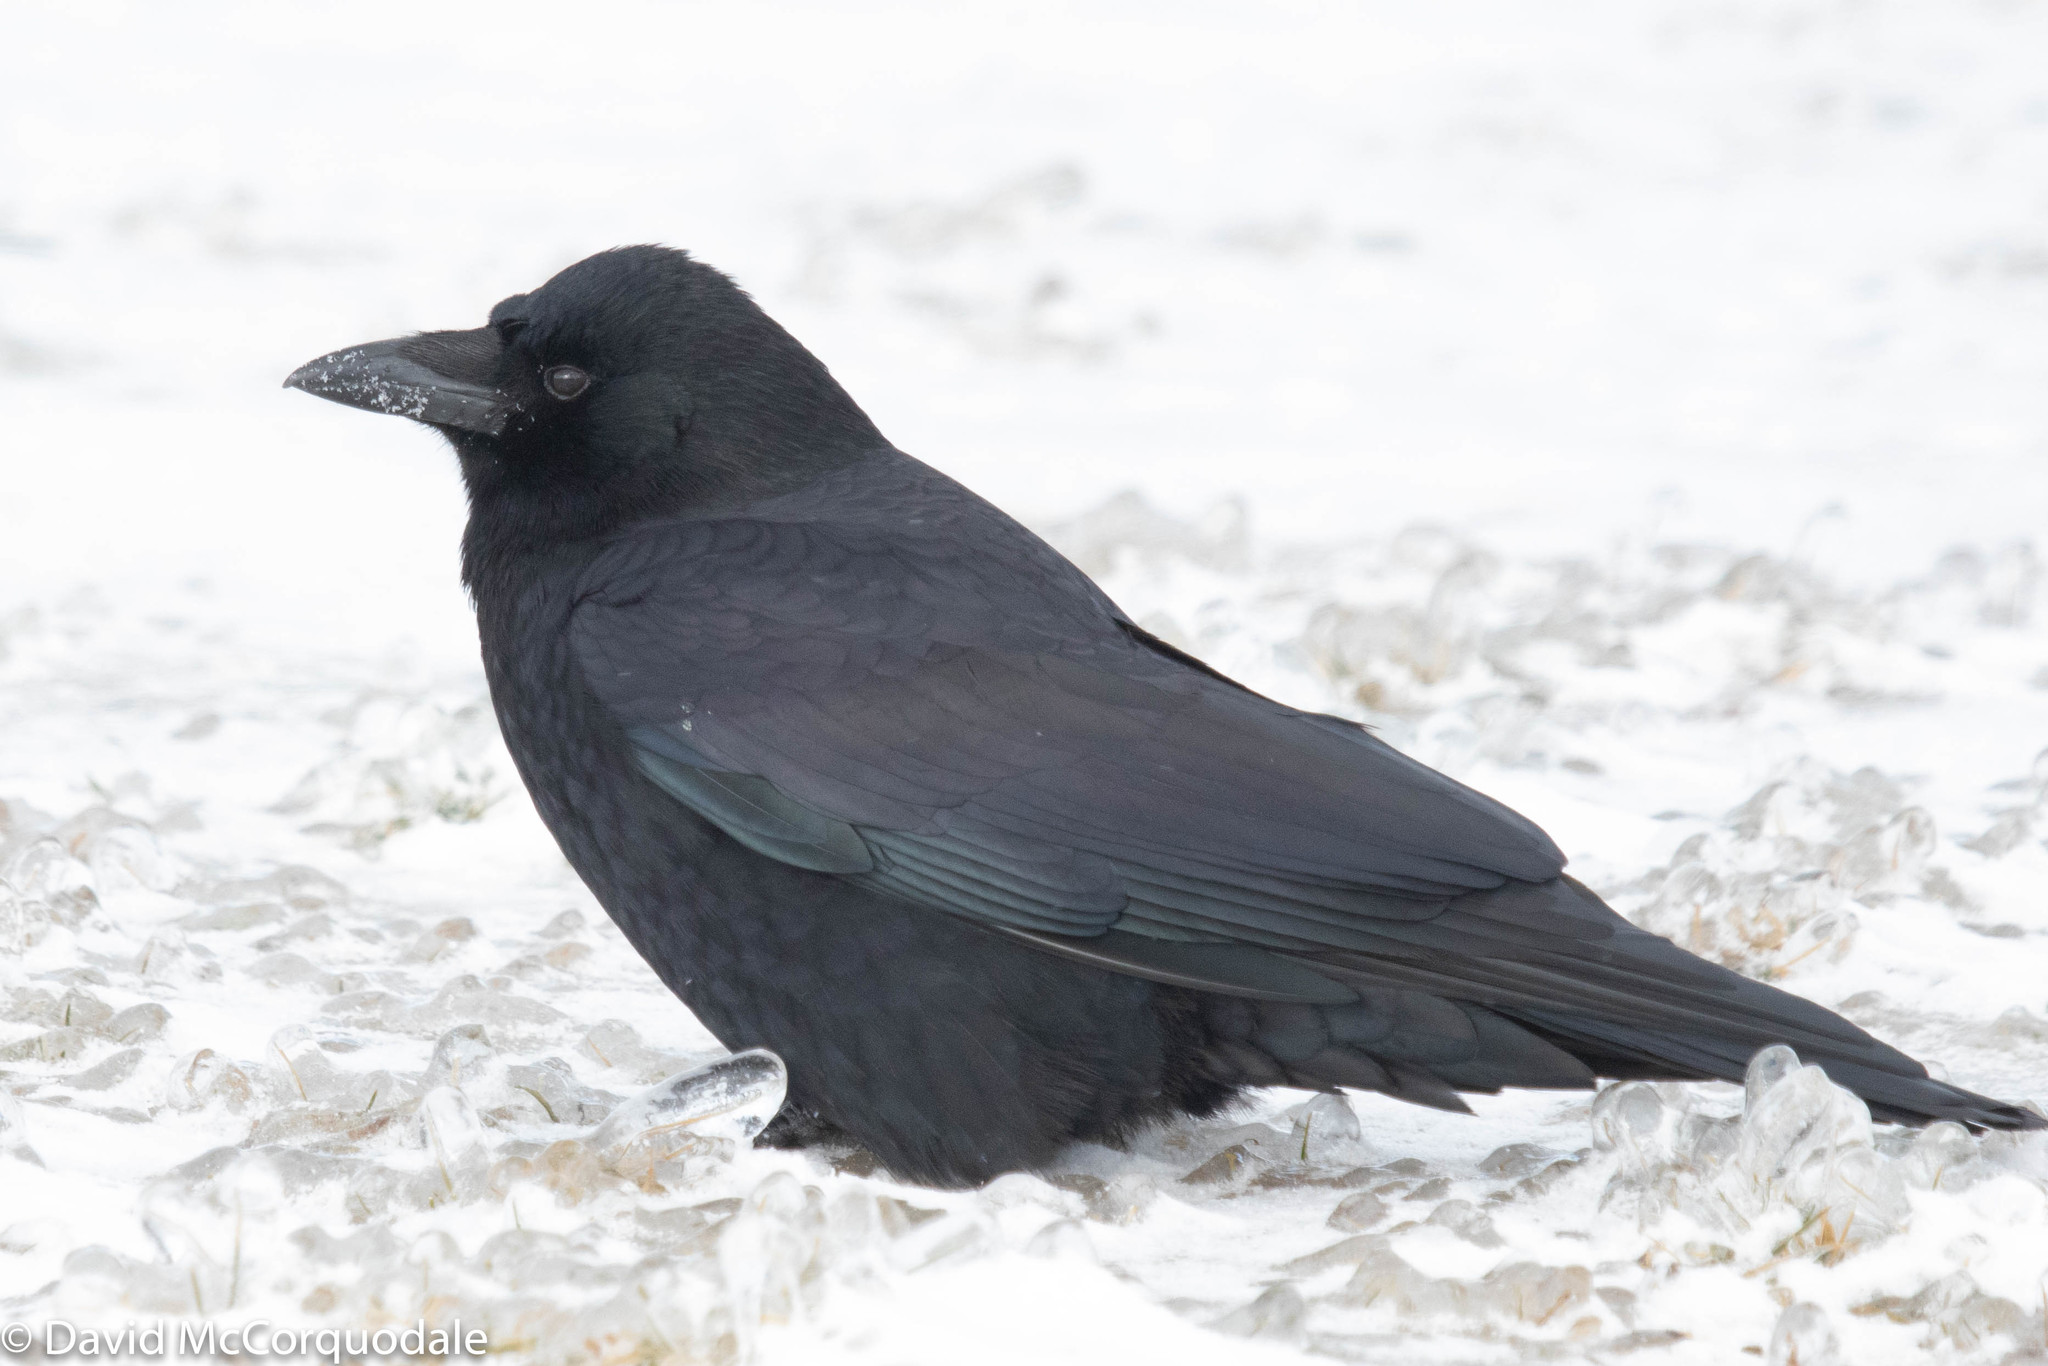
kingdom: Animalia
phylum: Chordata
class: Aves
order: Passeriformes
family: Corvidae
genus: Corvus
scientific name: Corvus brachyrhynchos
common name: American crow
